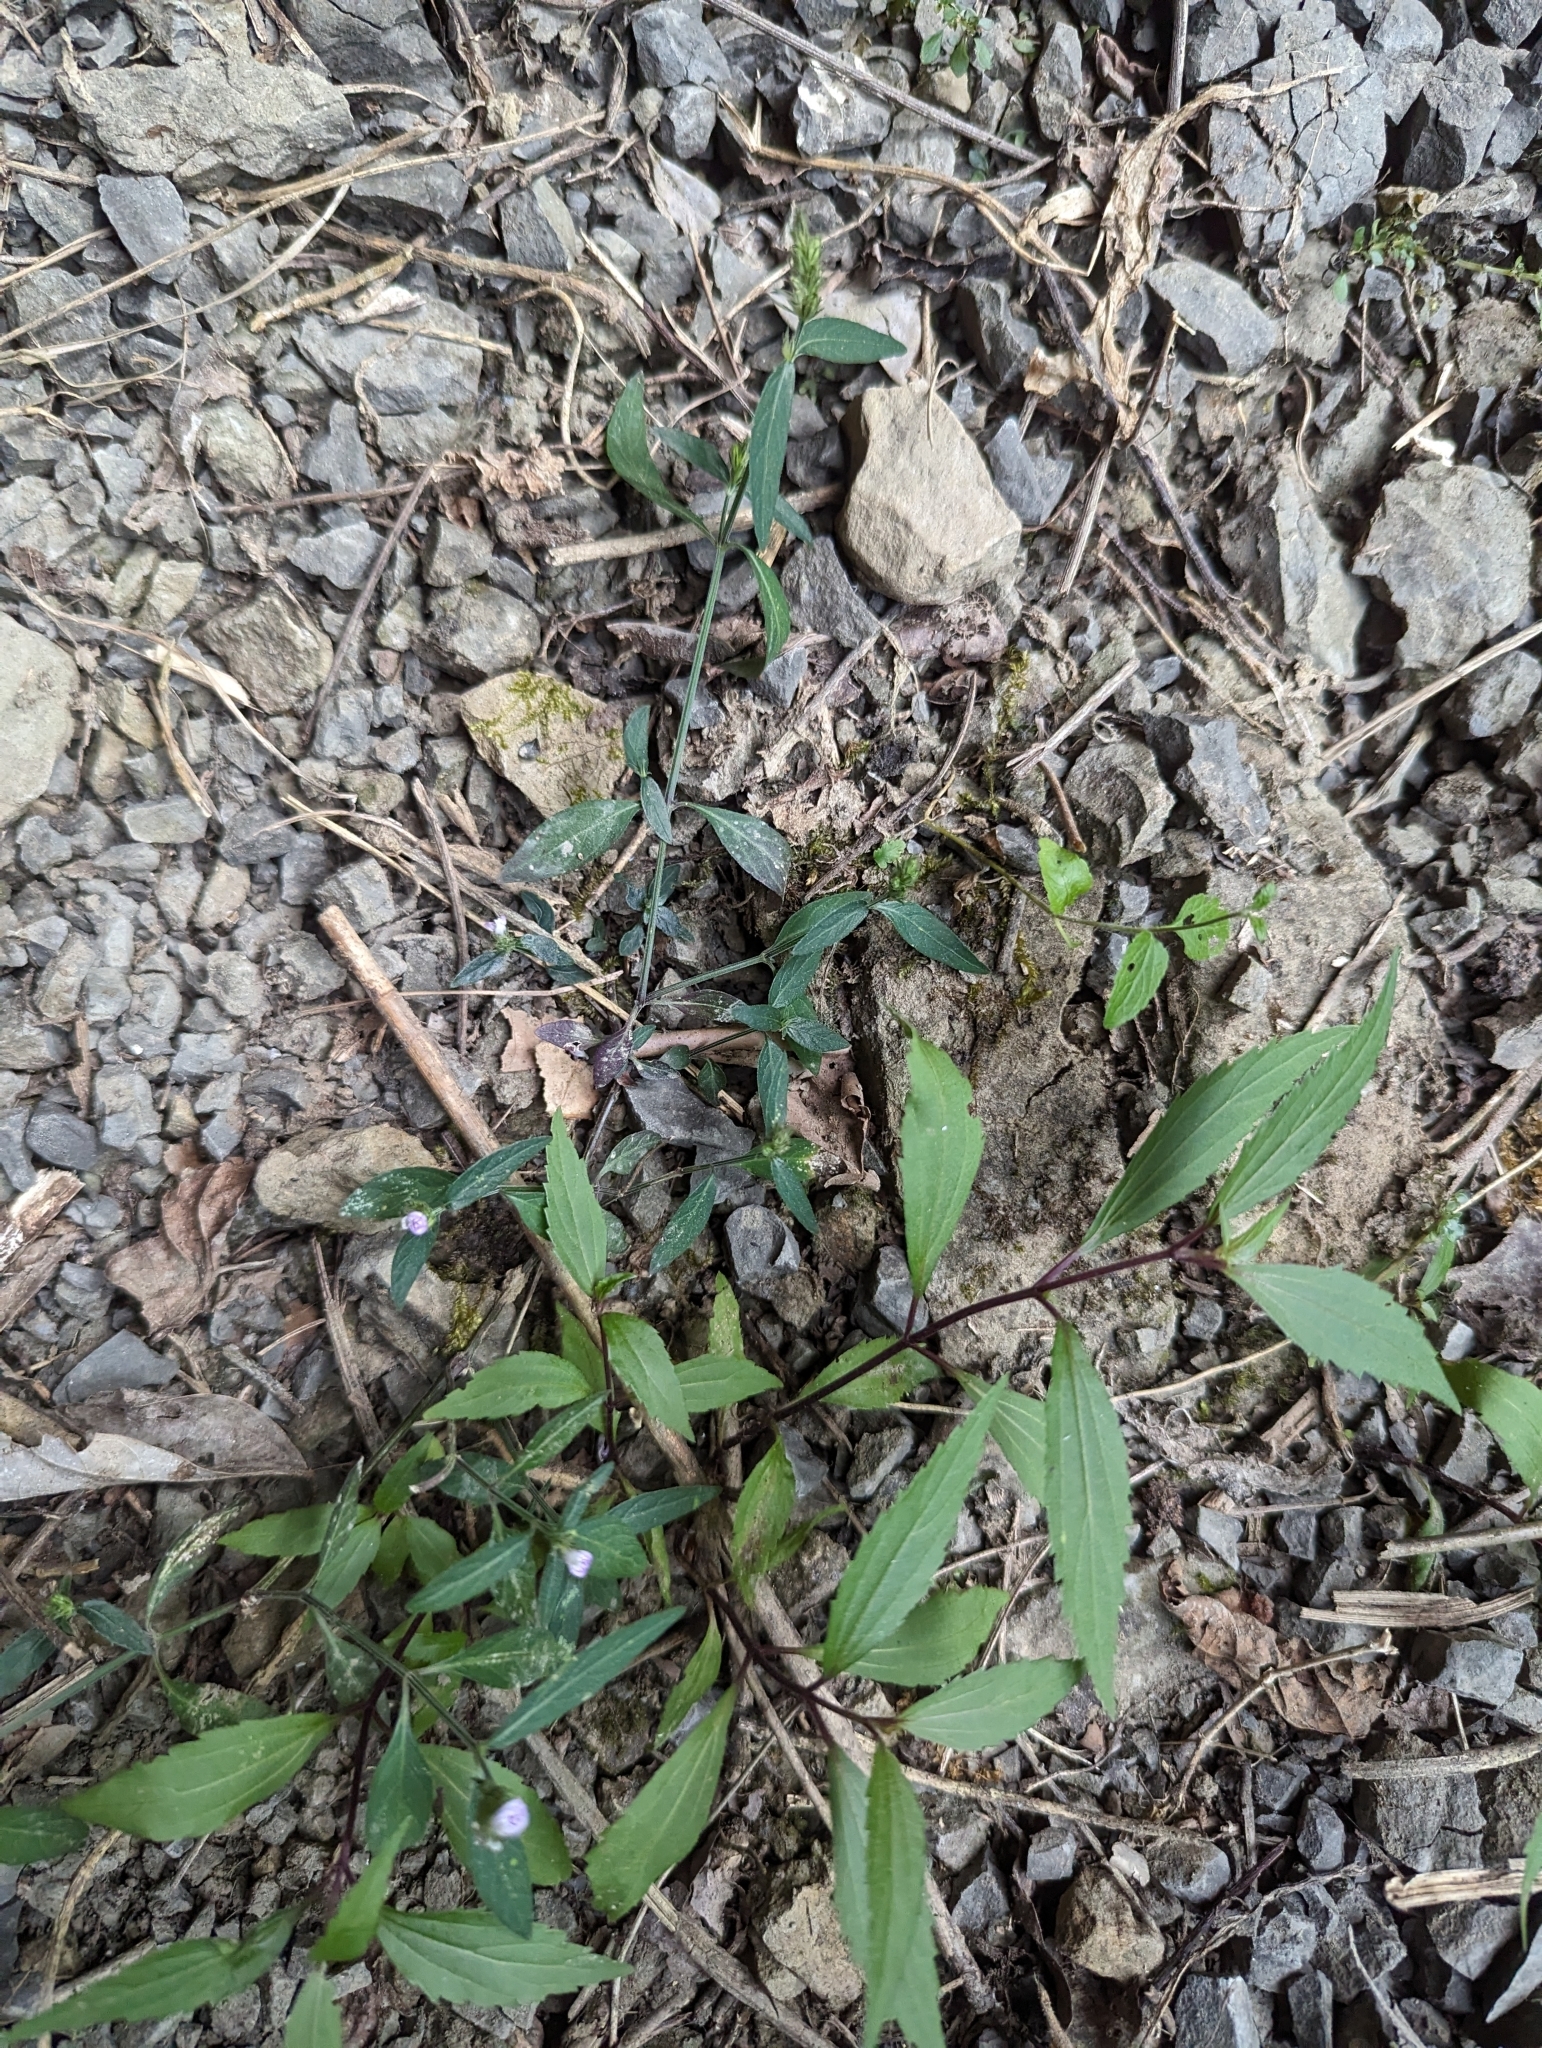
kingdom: Plantae
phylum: Tracheophyta
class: Magnoliopsida
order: Lamiales
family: Acanthaceae
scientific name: Acanthaceae
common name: Acanthaceae
